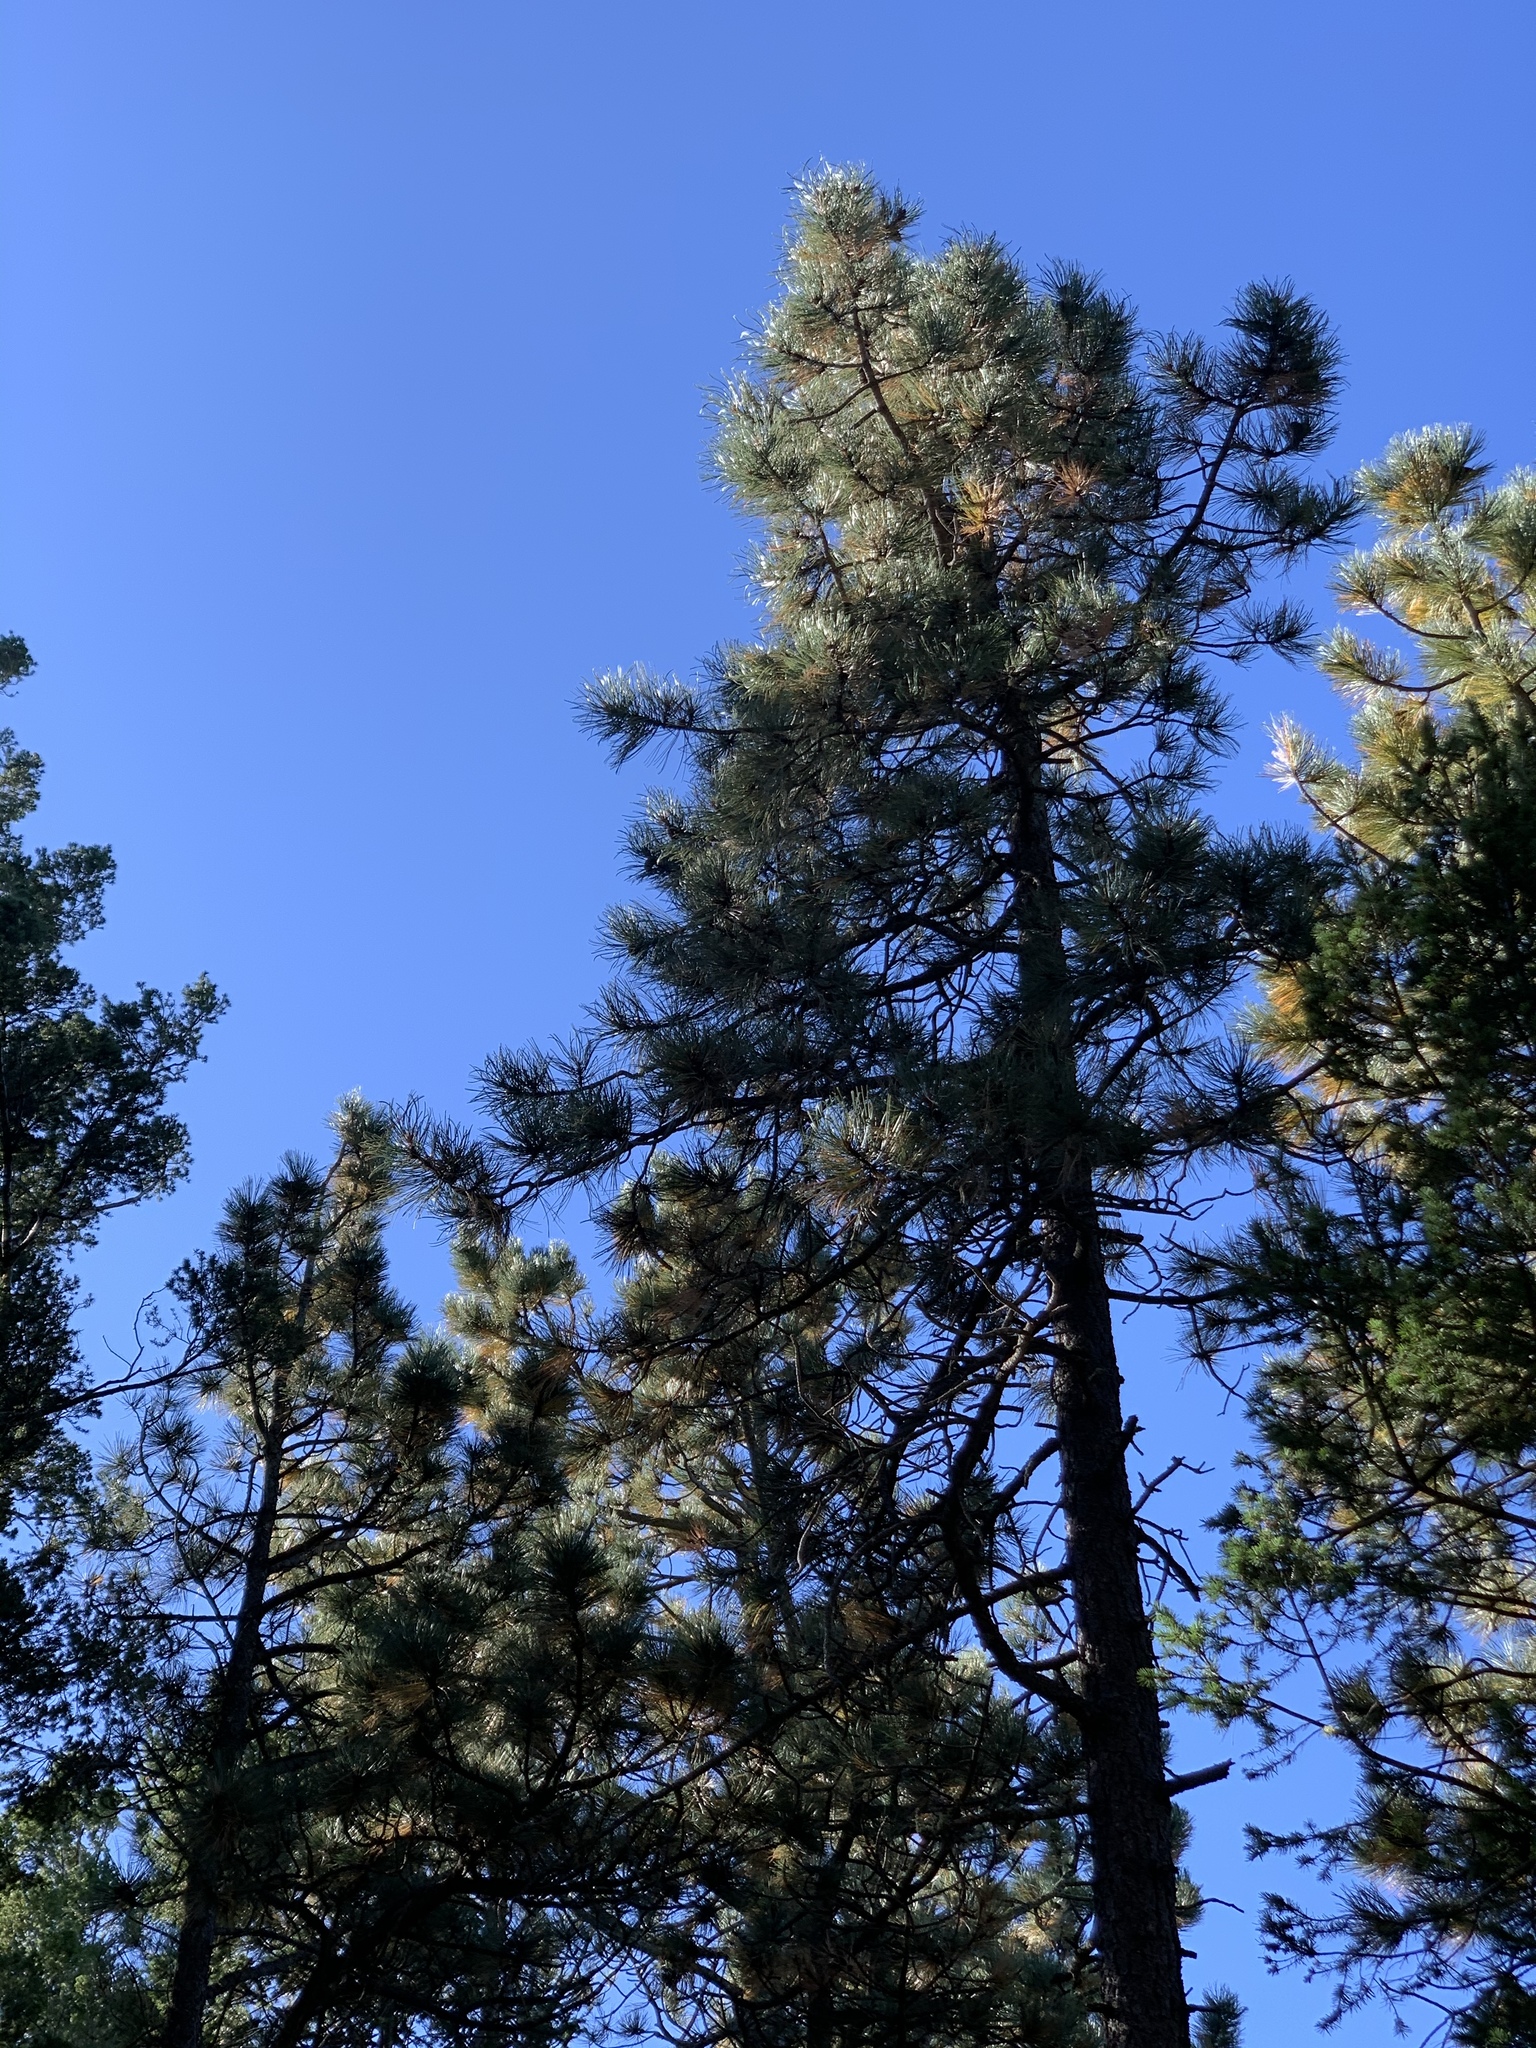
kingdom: Plantae
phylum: Tracheophyta
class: Pinopsida
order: Pinales
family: Pinaceae
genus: Pinus
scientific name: Pinus ponderosa
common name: Western yellow-pine
